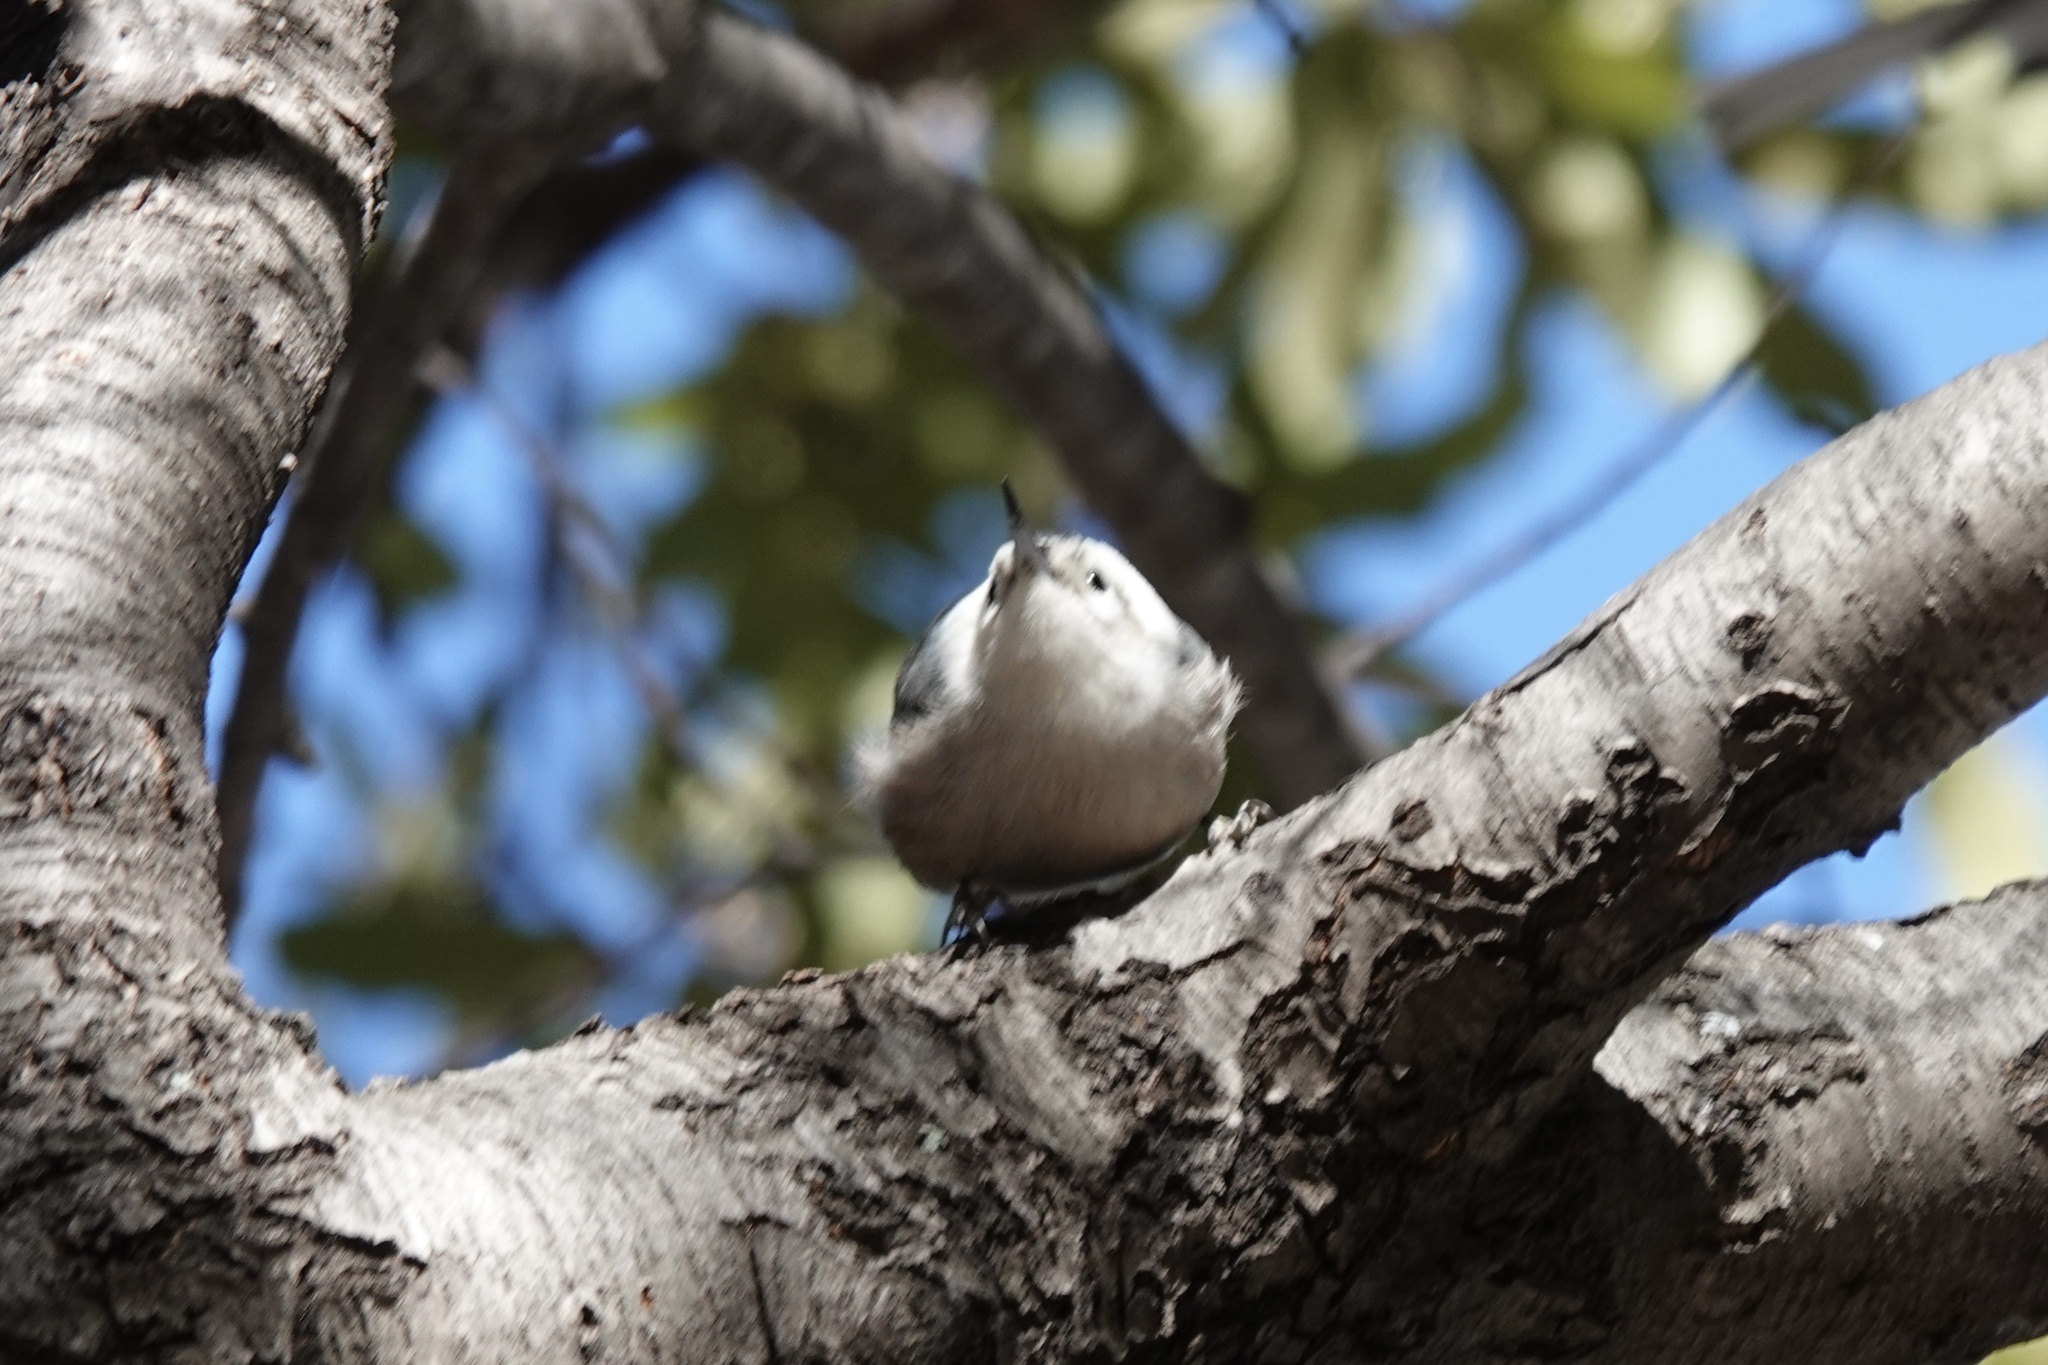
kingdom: Animalia
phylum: Chordata
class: Aves
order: Passeriformes
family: Sittidae
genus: Sitta
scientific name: Sitta carolinensis
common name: White-breasted nuthatch
